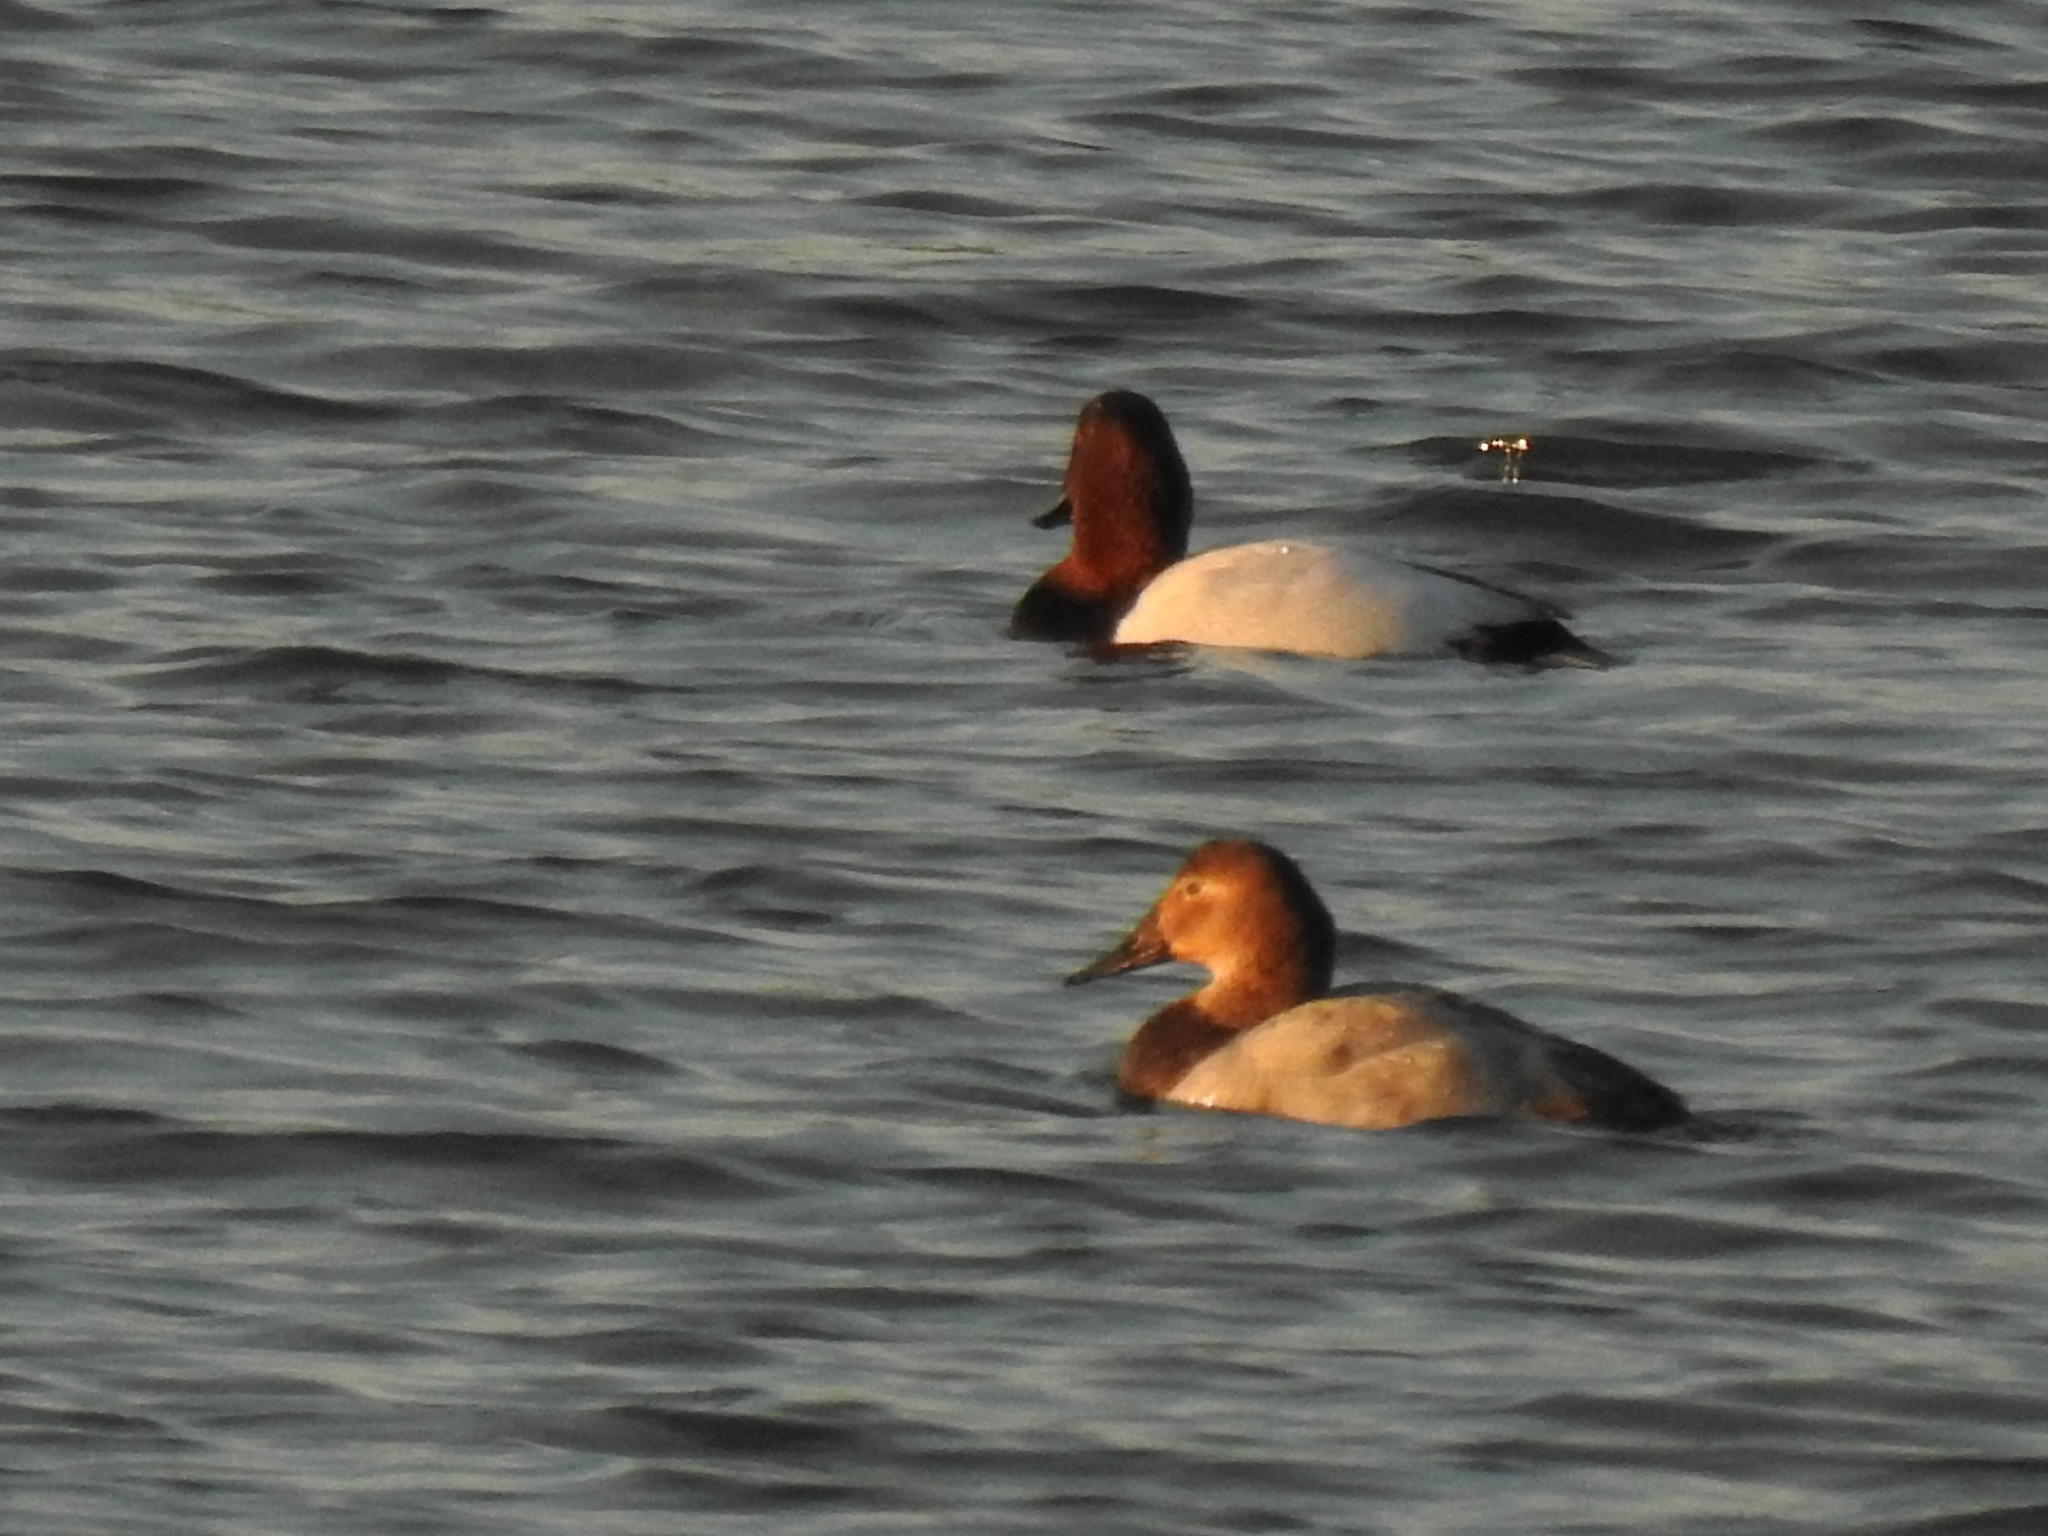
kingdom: Animalia
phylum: Chordata
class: Aves
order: Anseriformes
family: Anatidae
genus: Aythya
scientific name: Aythya valisineria
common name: Canvasback
